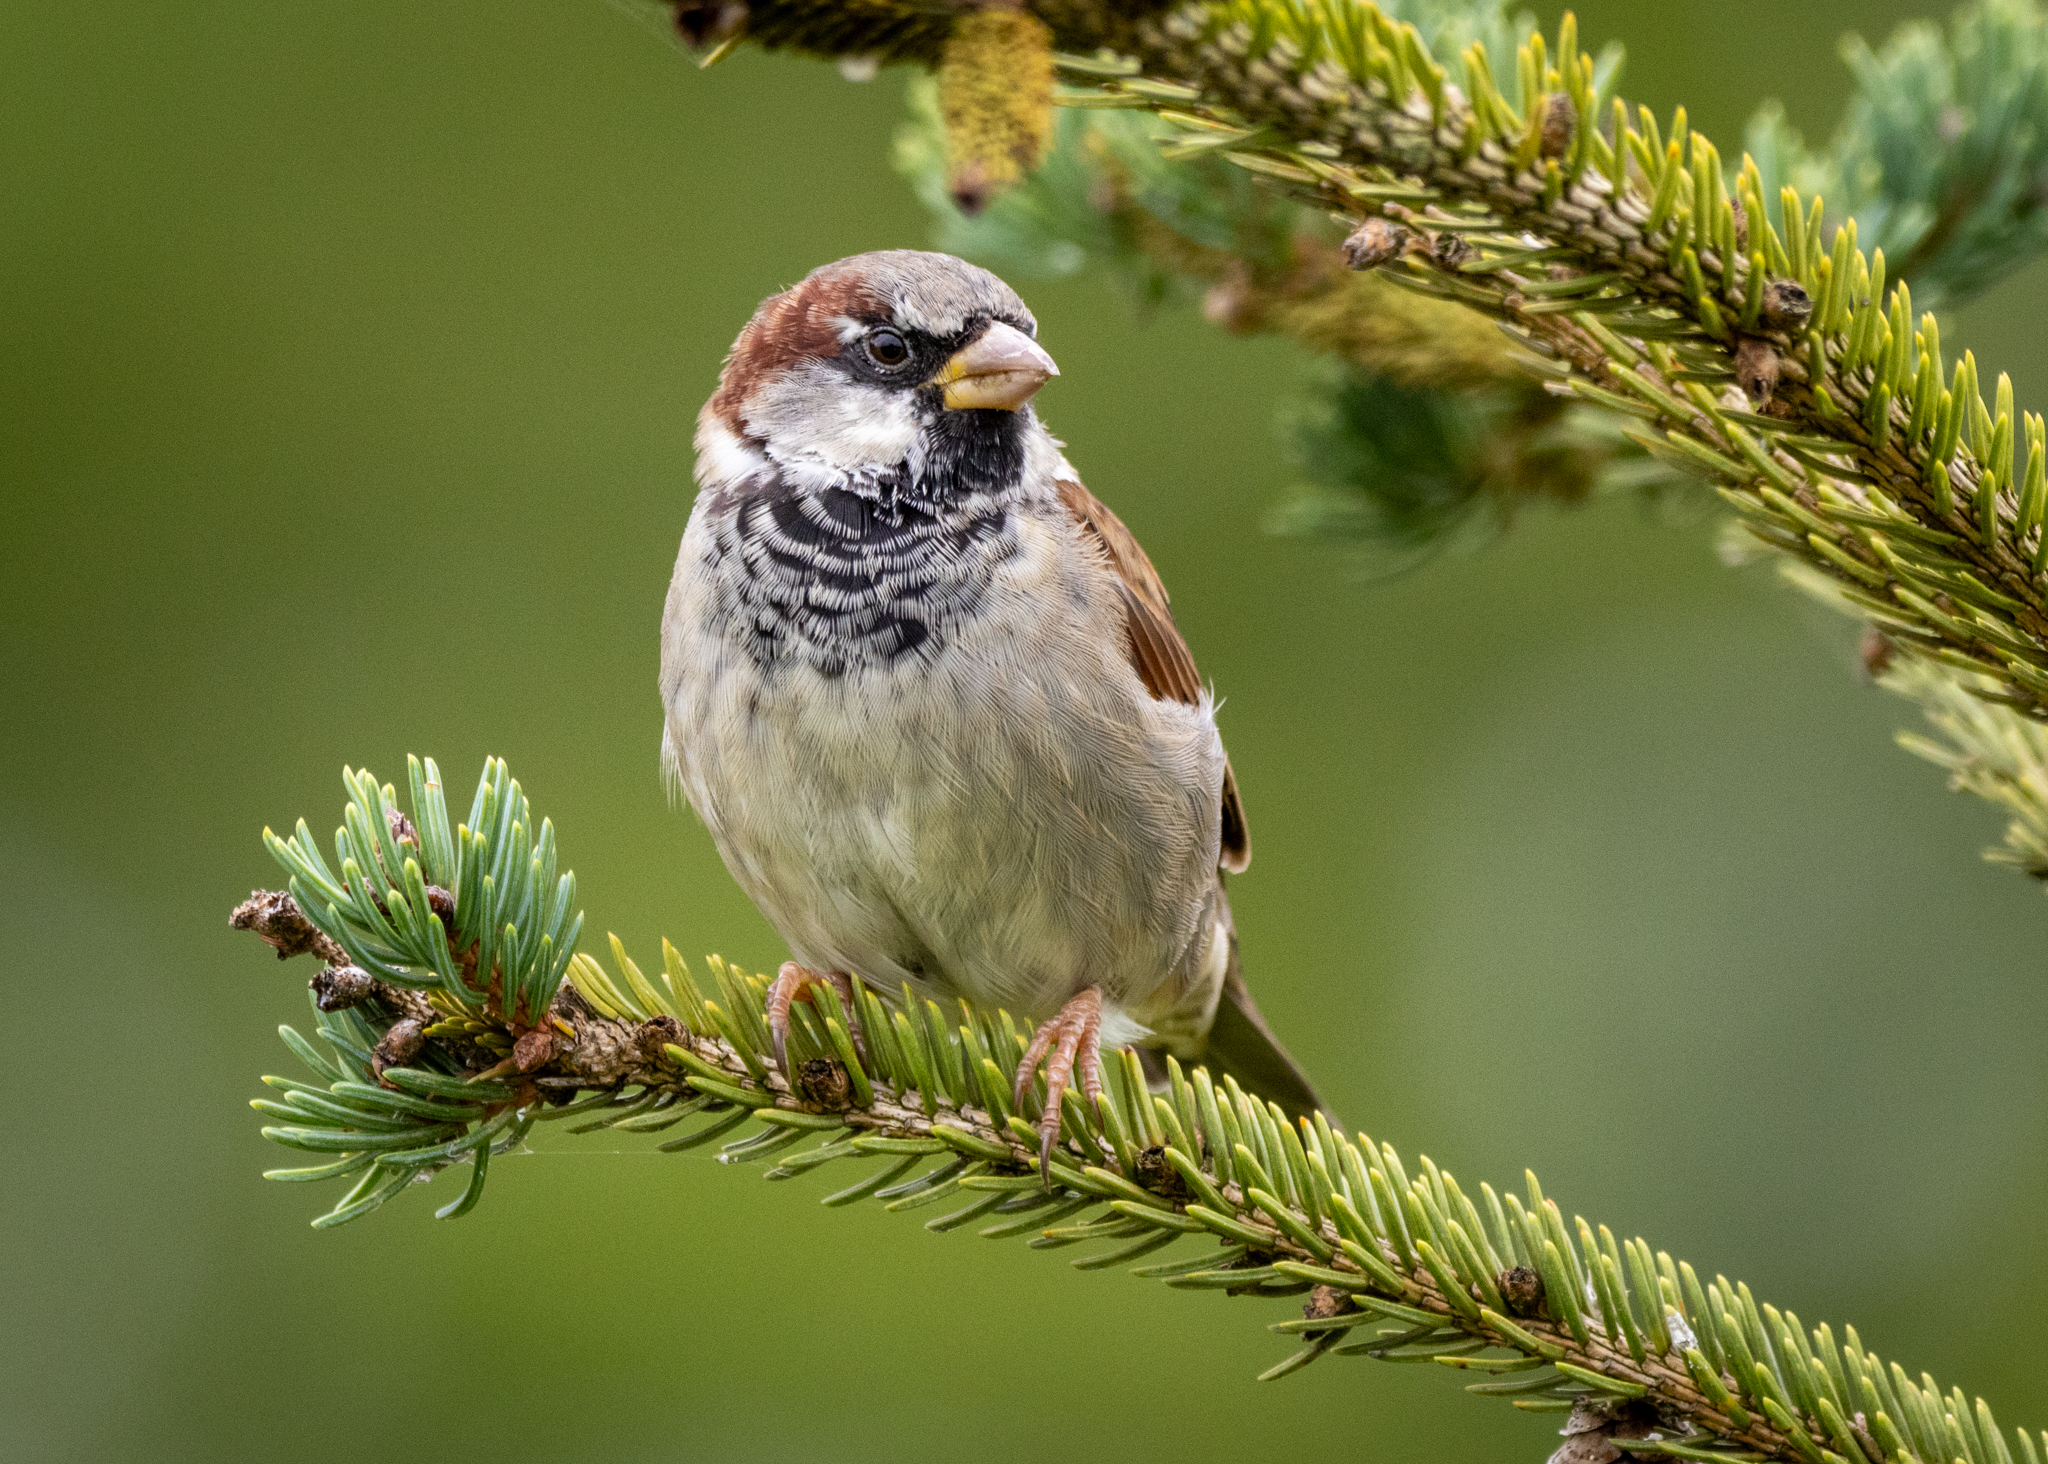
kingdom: Animalia
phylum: Chordata
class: Aves
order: Passeriformes
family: Passeridae
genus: Passer
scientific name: Passer domesticus
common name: House sparrow
